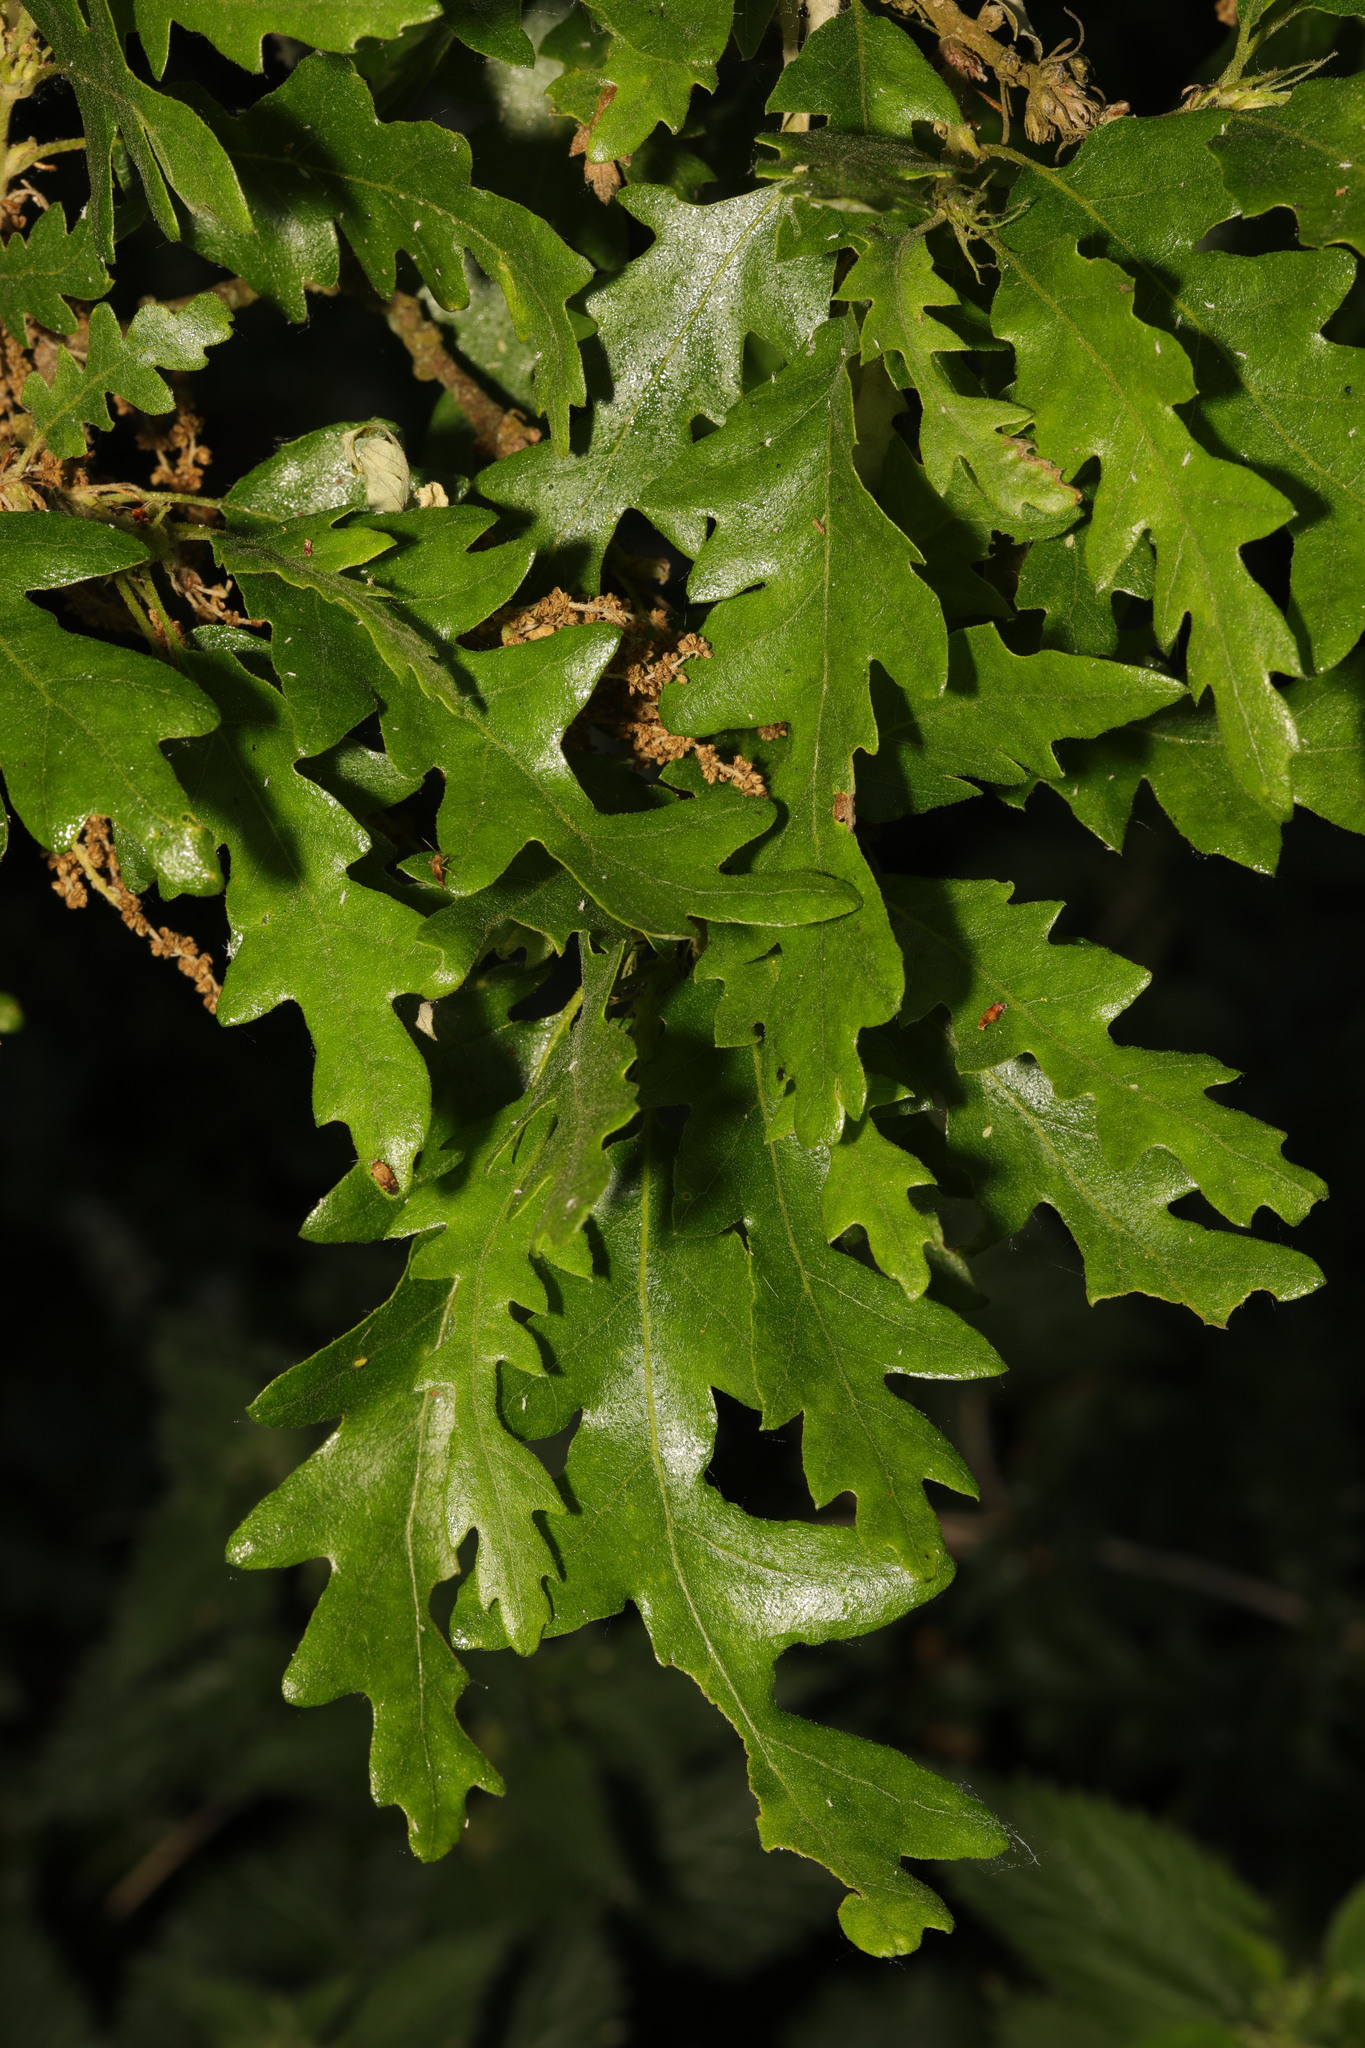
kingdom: Plantae
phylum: Tracheophyta
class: Magnoliopsida
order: Fagales
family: Fagaceae
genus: Quercus
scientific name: Quercus cerris
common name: Turkey oak
